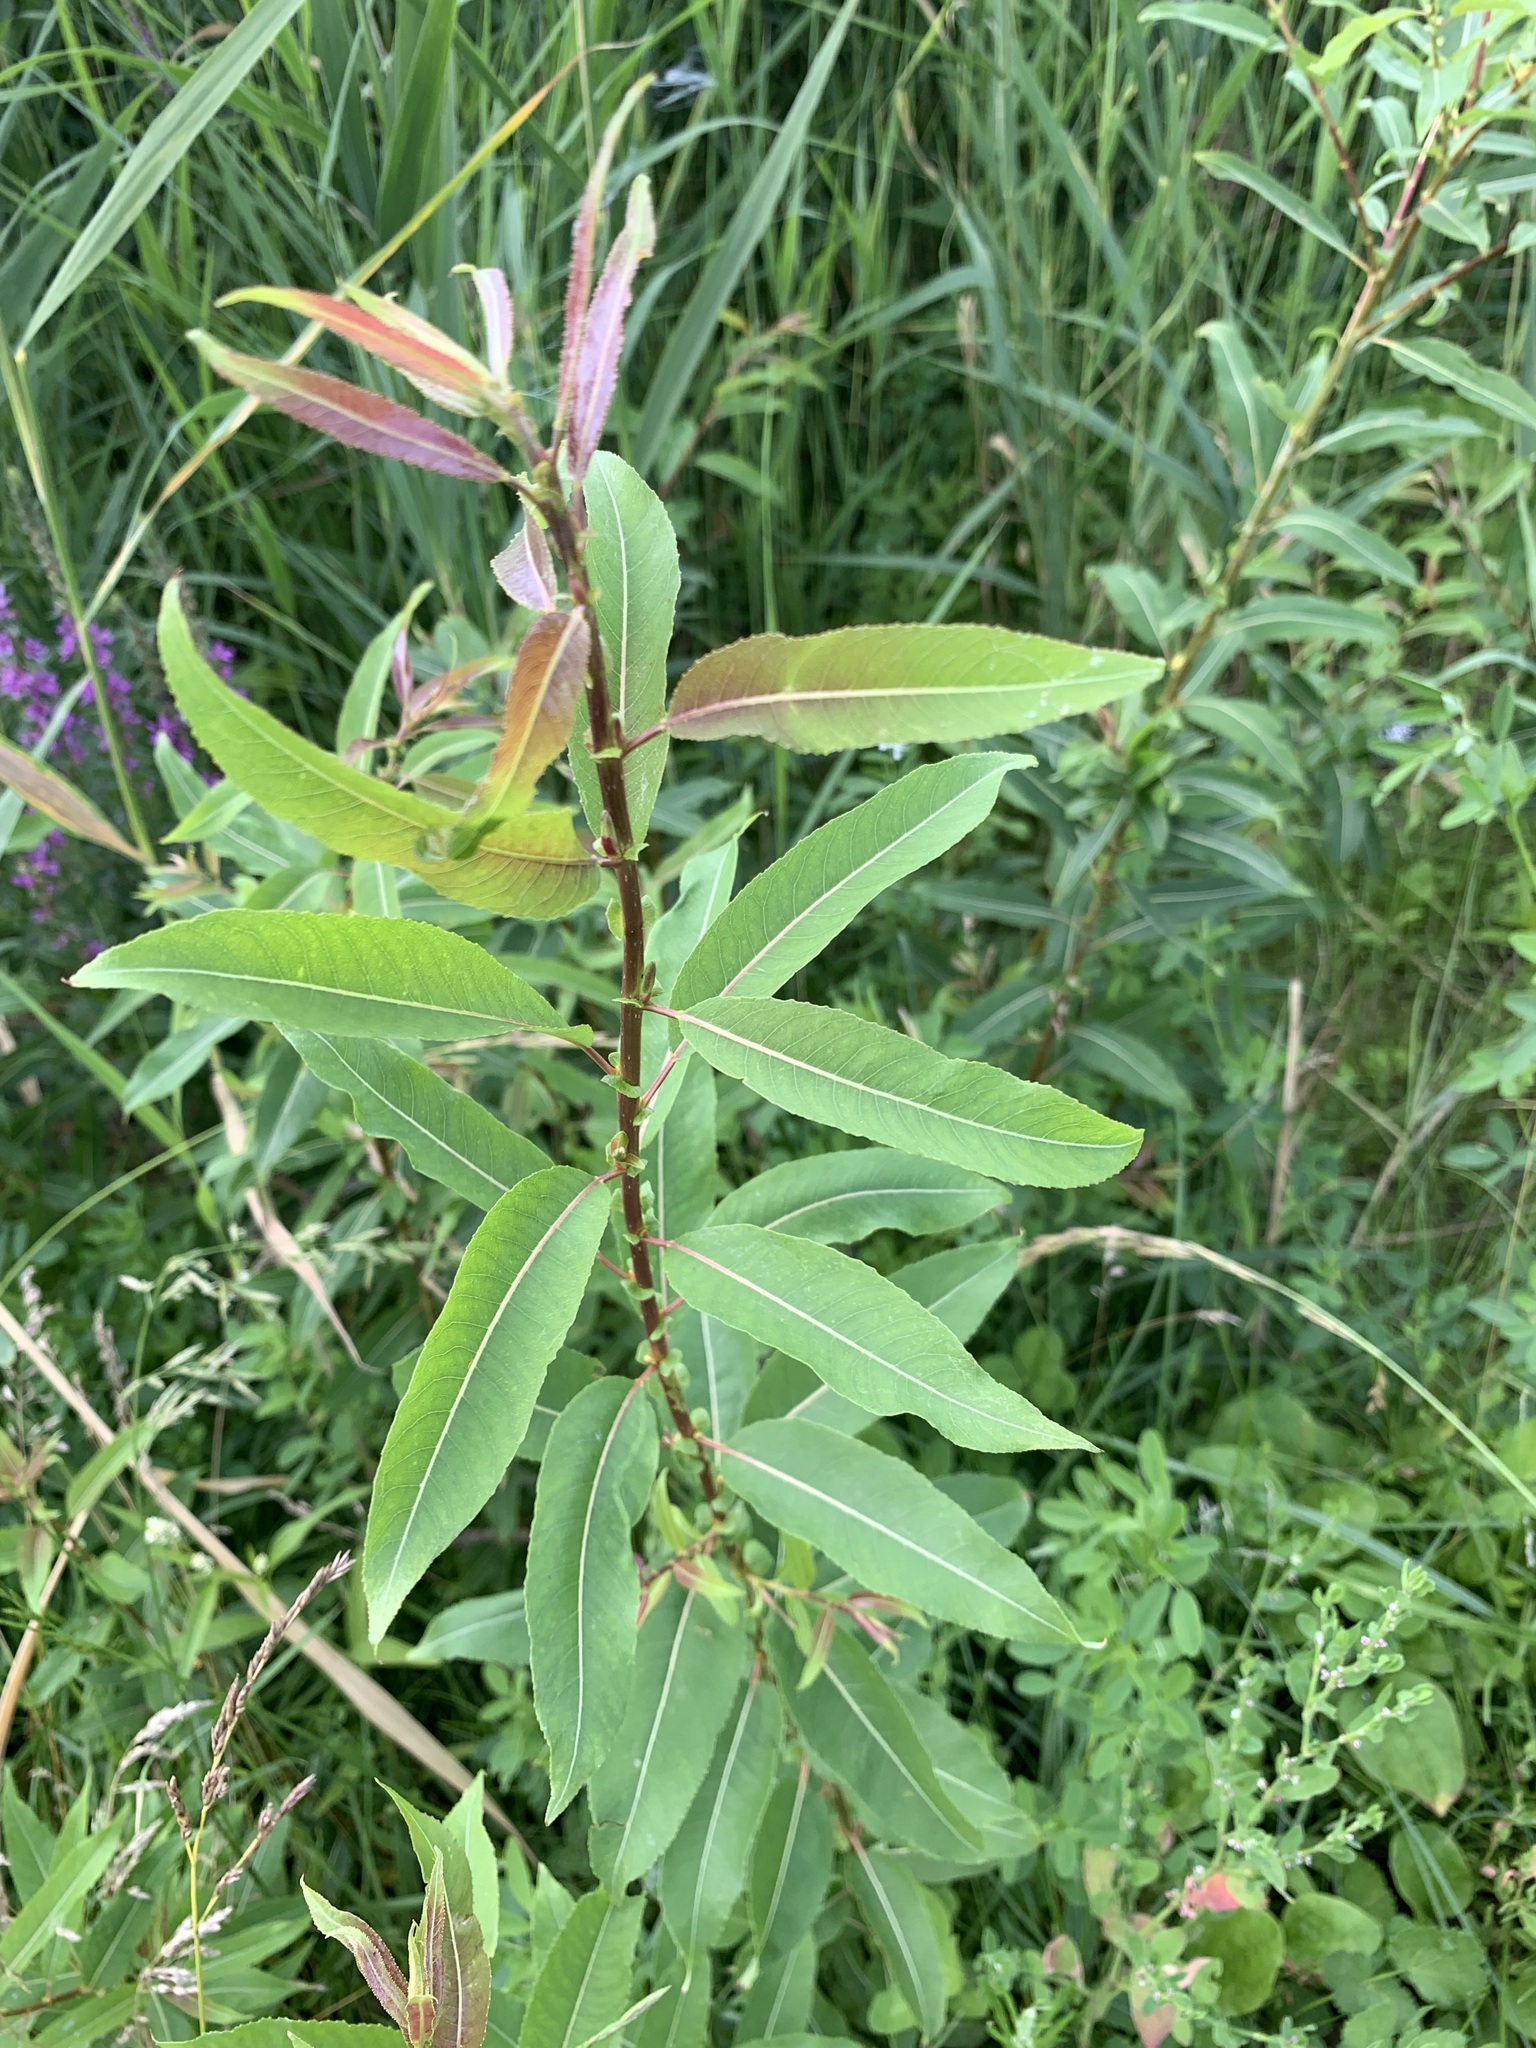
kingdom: Plantae
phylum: Tracheophyta
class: Magnoliopsida
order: Malpighiales
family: Salicaceae
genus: Salix
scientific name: Salix triandra
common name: Almond willow
